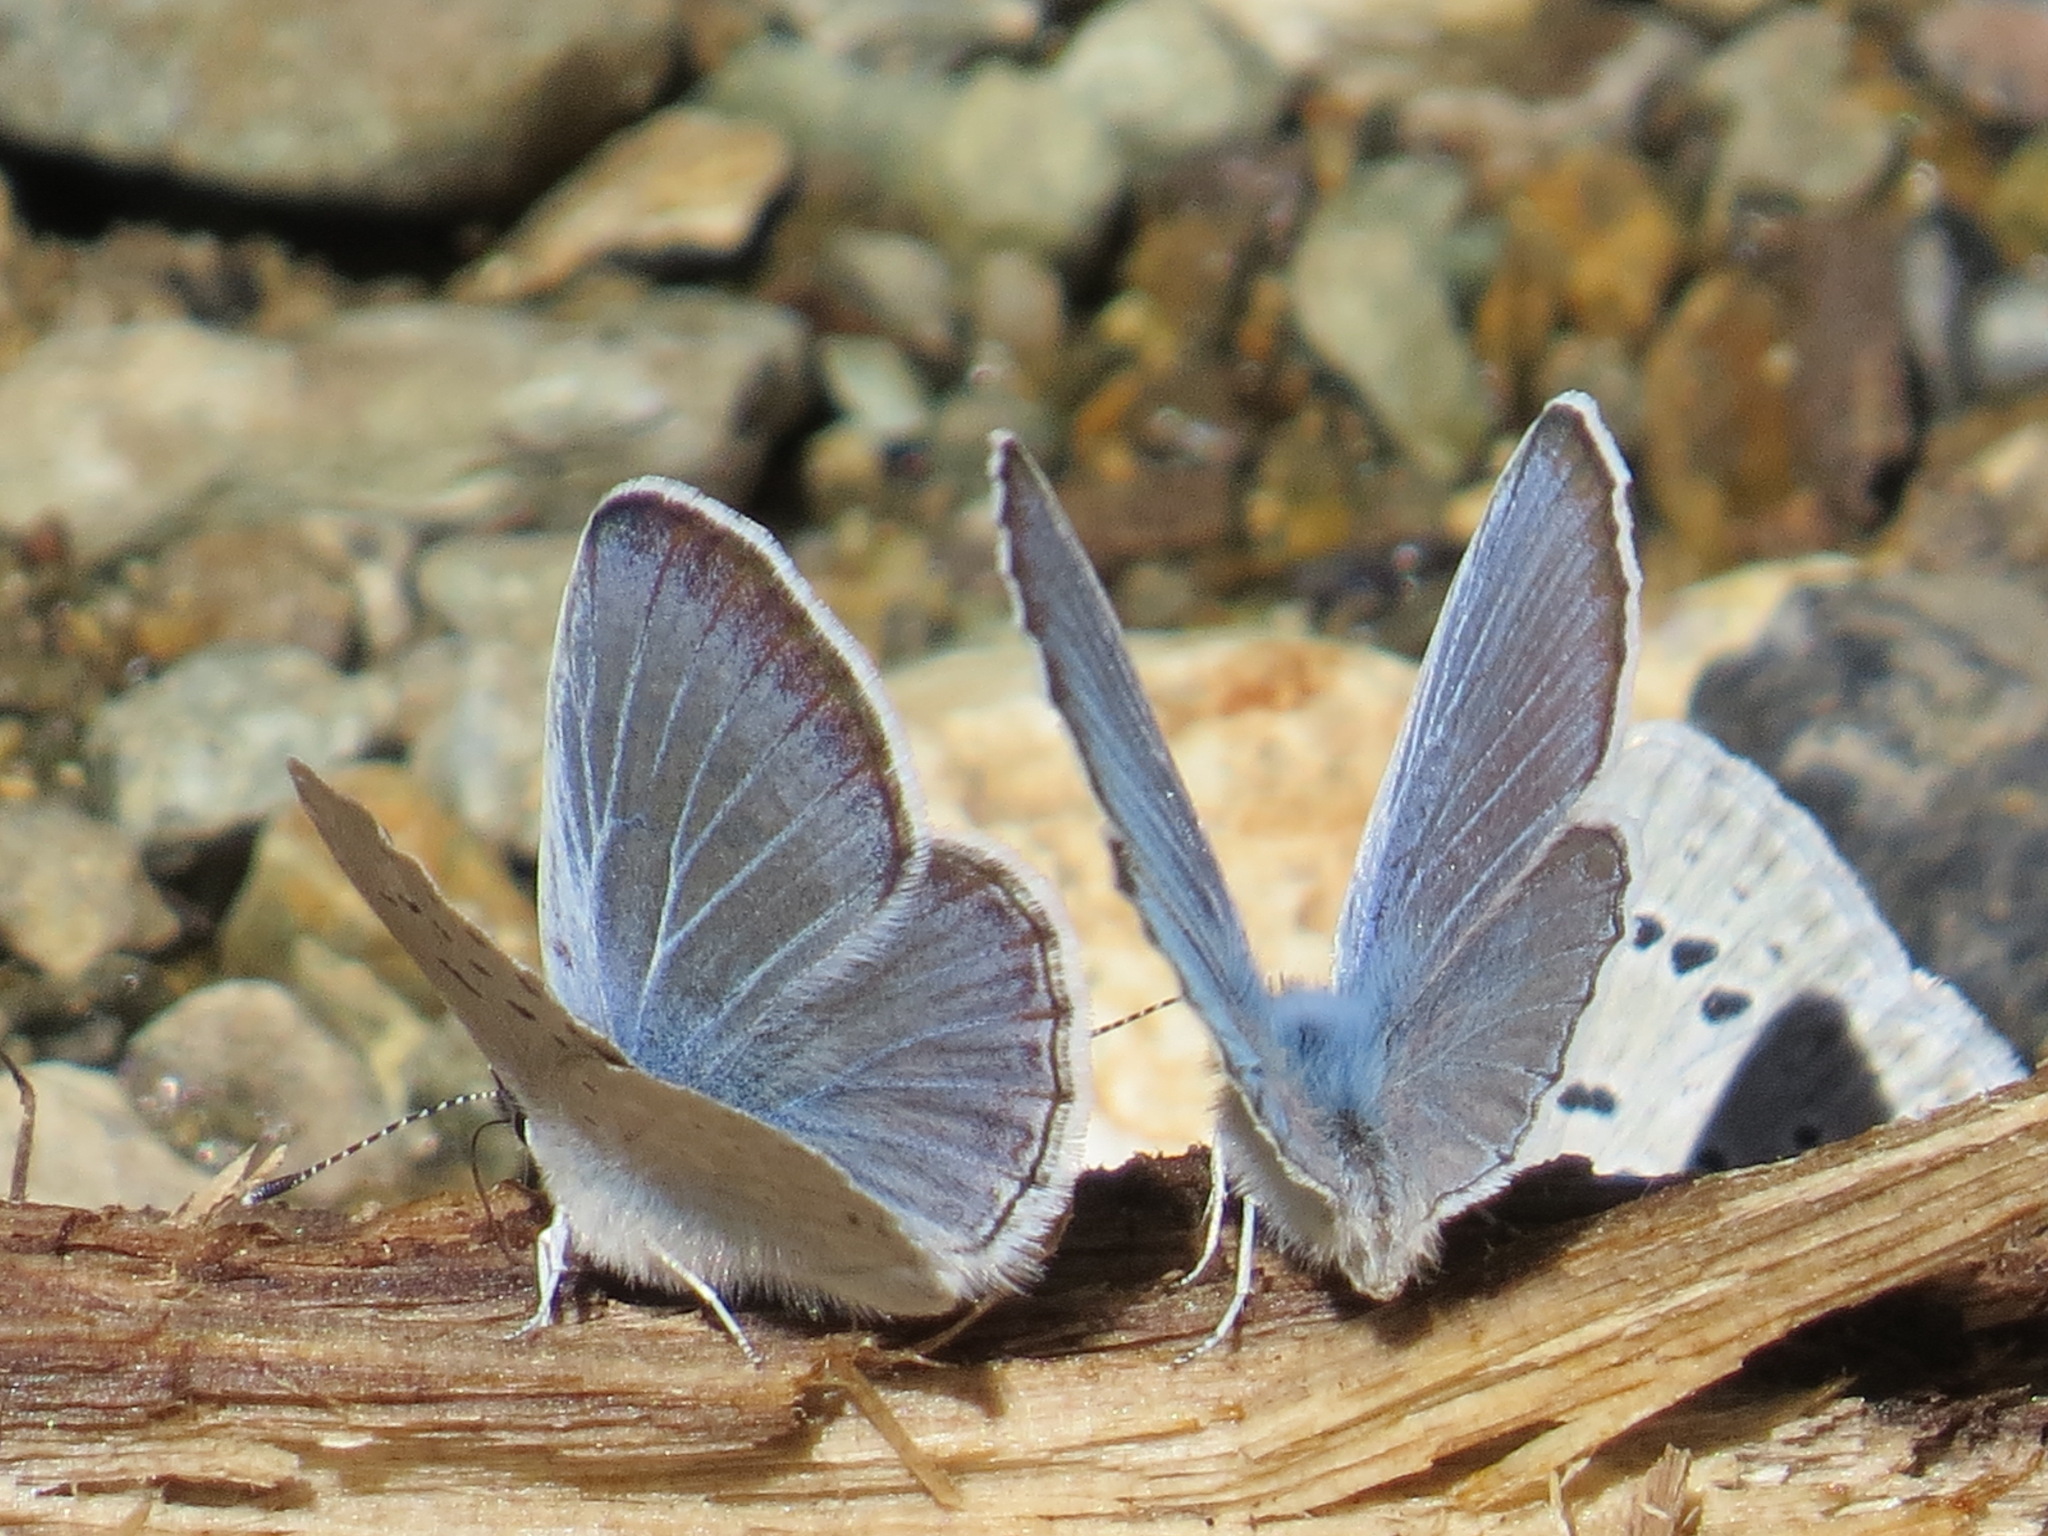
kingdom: Animalia
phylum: Arthropoda
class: Insecta
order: Lepidoptera
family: Lycaenidae
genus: Icaricia
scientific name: Icaricia icarioides
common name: Boisduval's blue
